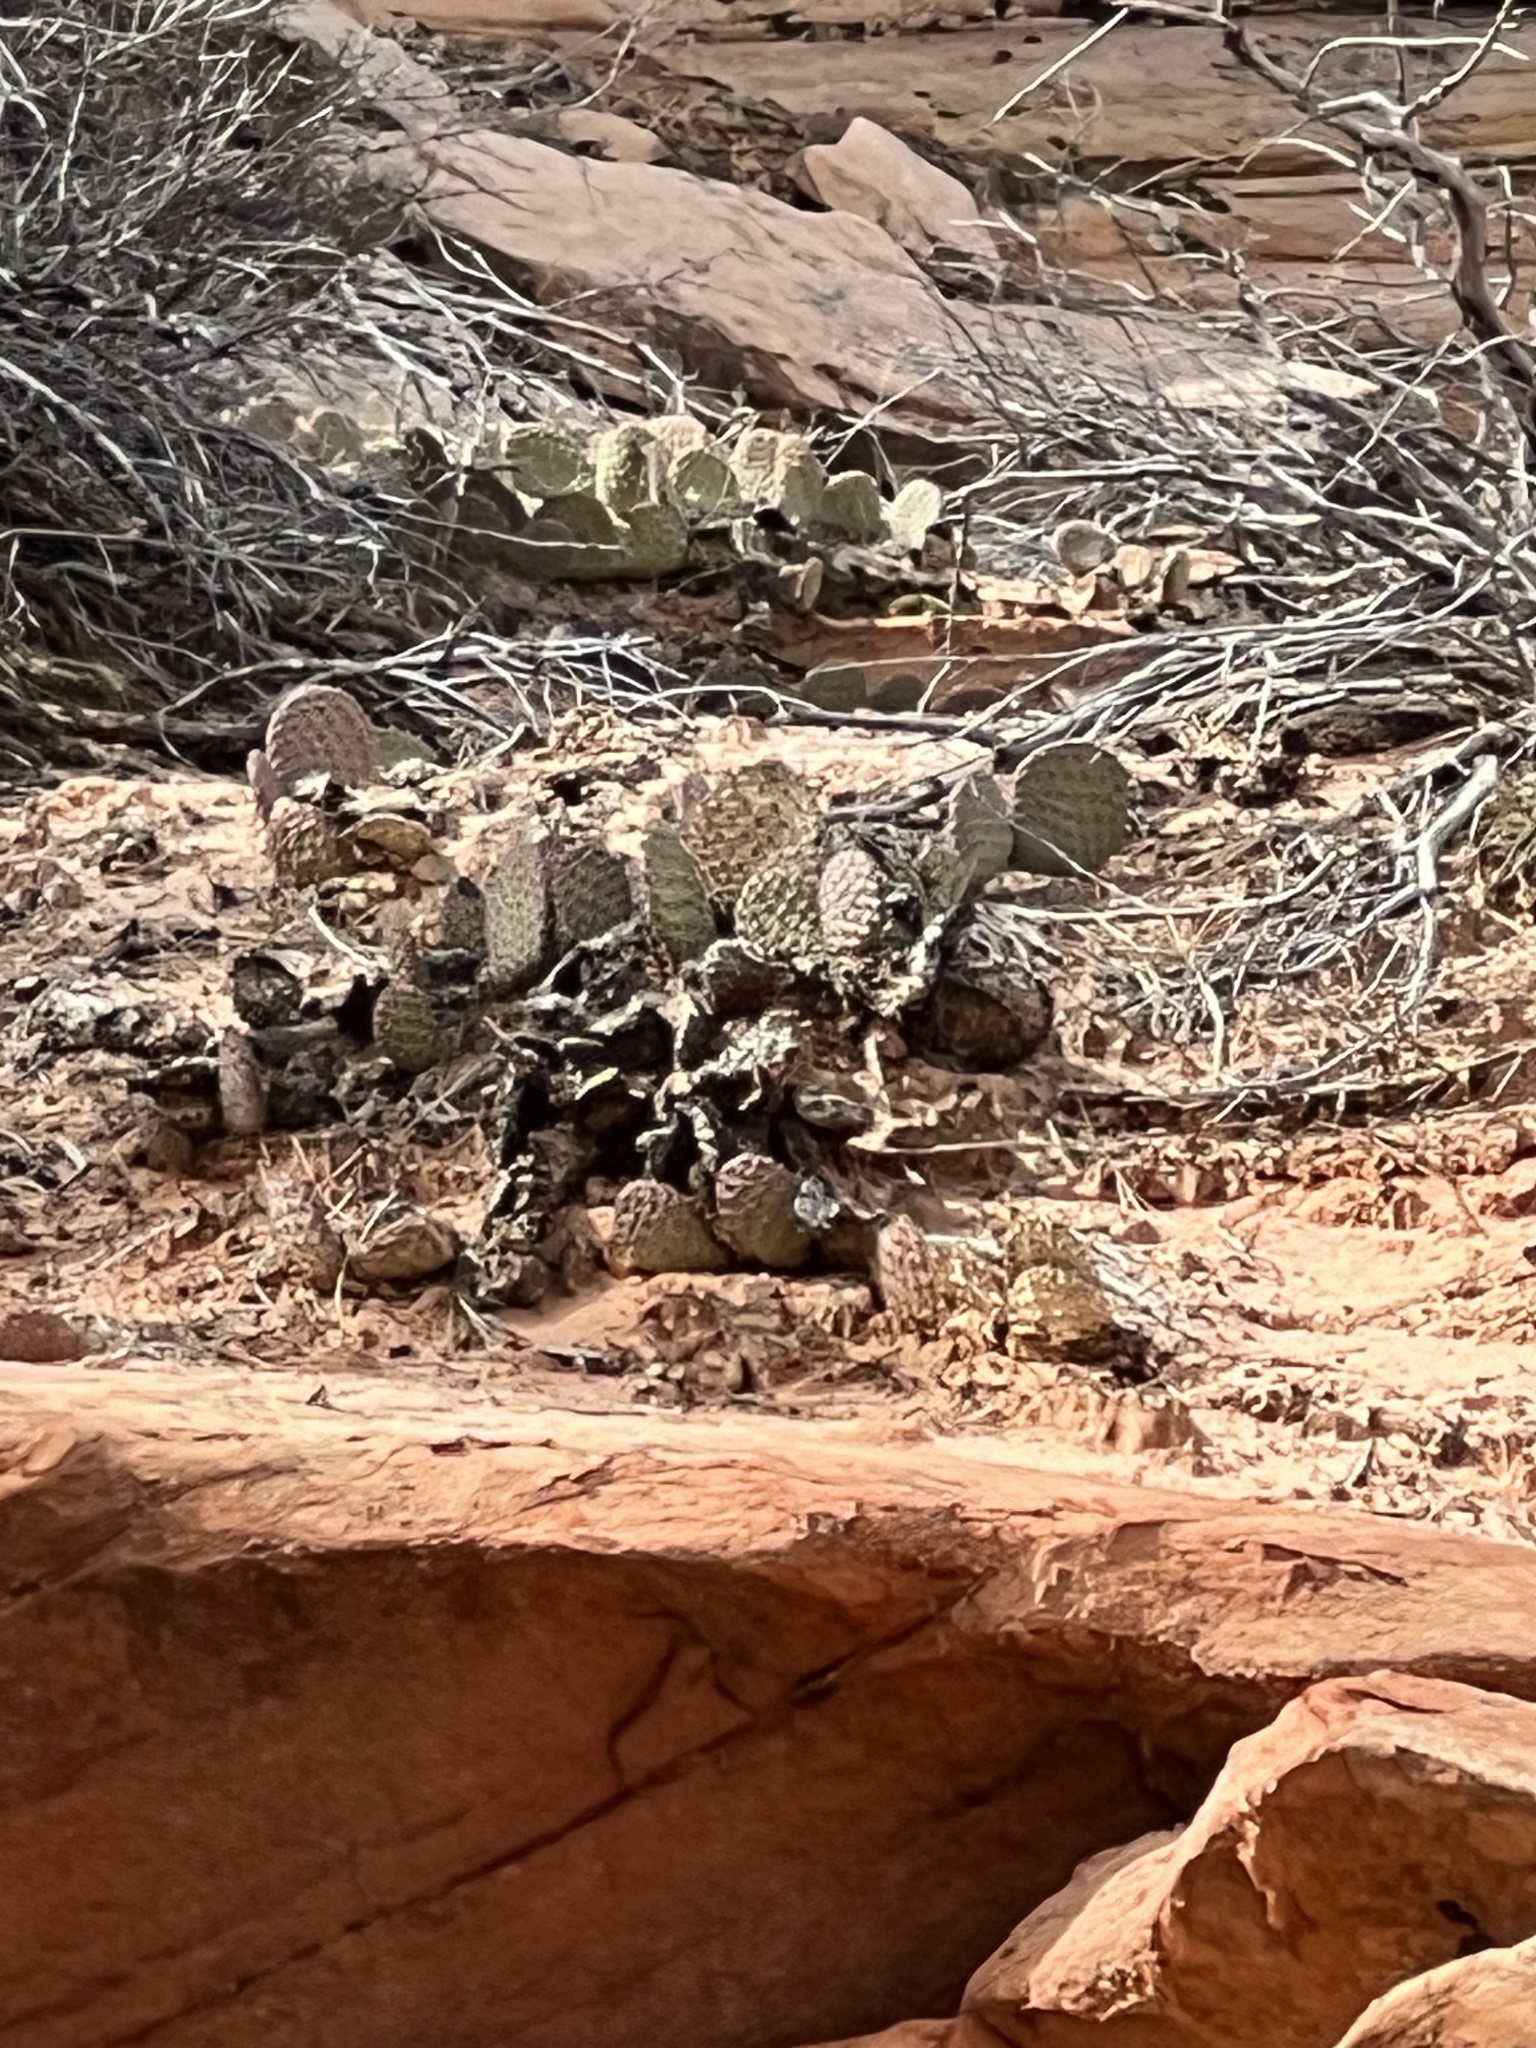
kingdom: Plantae
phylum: Tracheophyta
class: Magnoliopsida
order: Caryophyllales
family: Cactaceae
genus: Opuntia
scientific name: Opuntia aurea
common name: Golden prickly-pear
